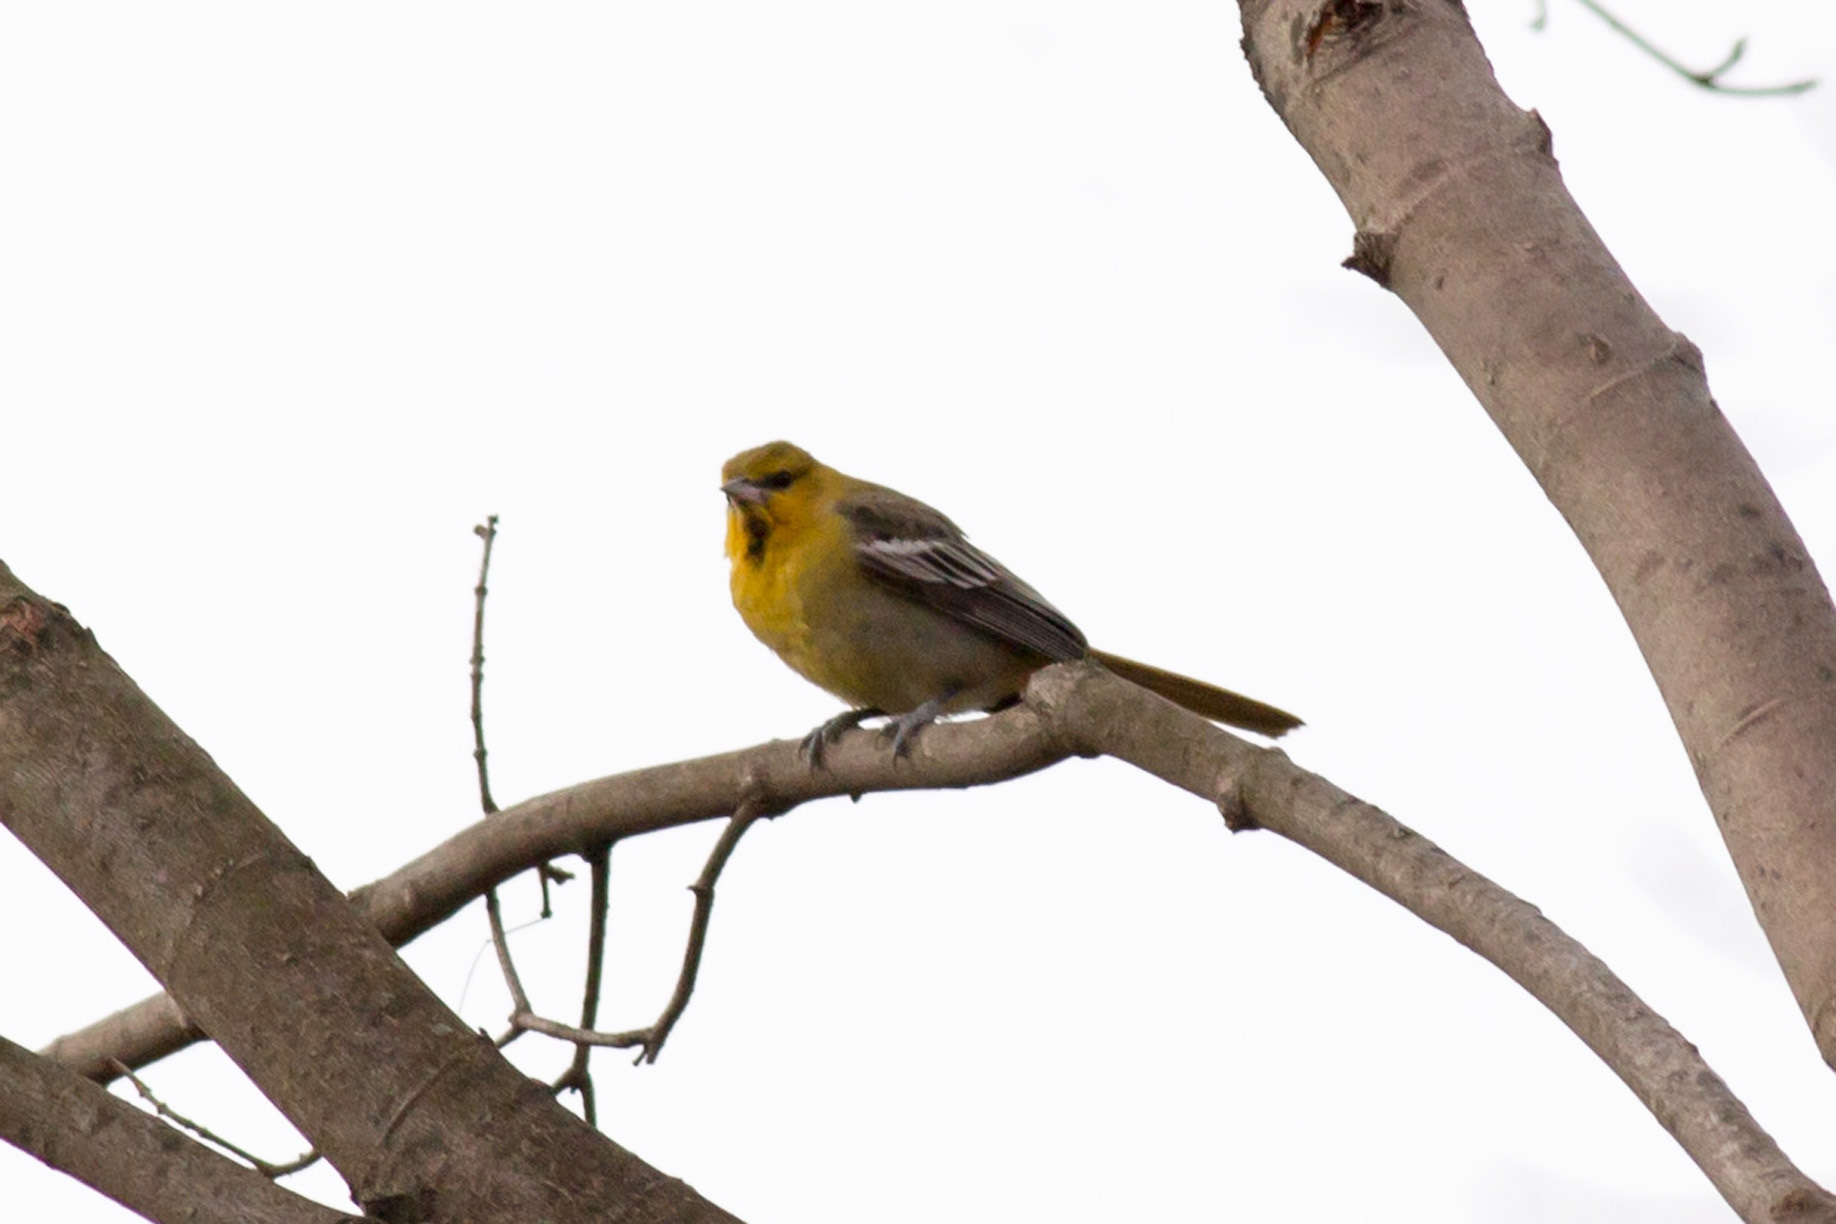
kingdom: Animalia
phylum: Chordata
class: Aves
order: Passeriformes
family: Icteridae
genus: Icterus
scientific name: Icterus bullockii
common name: Bullock's oriole
